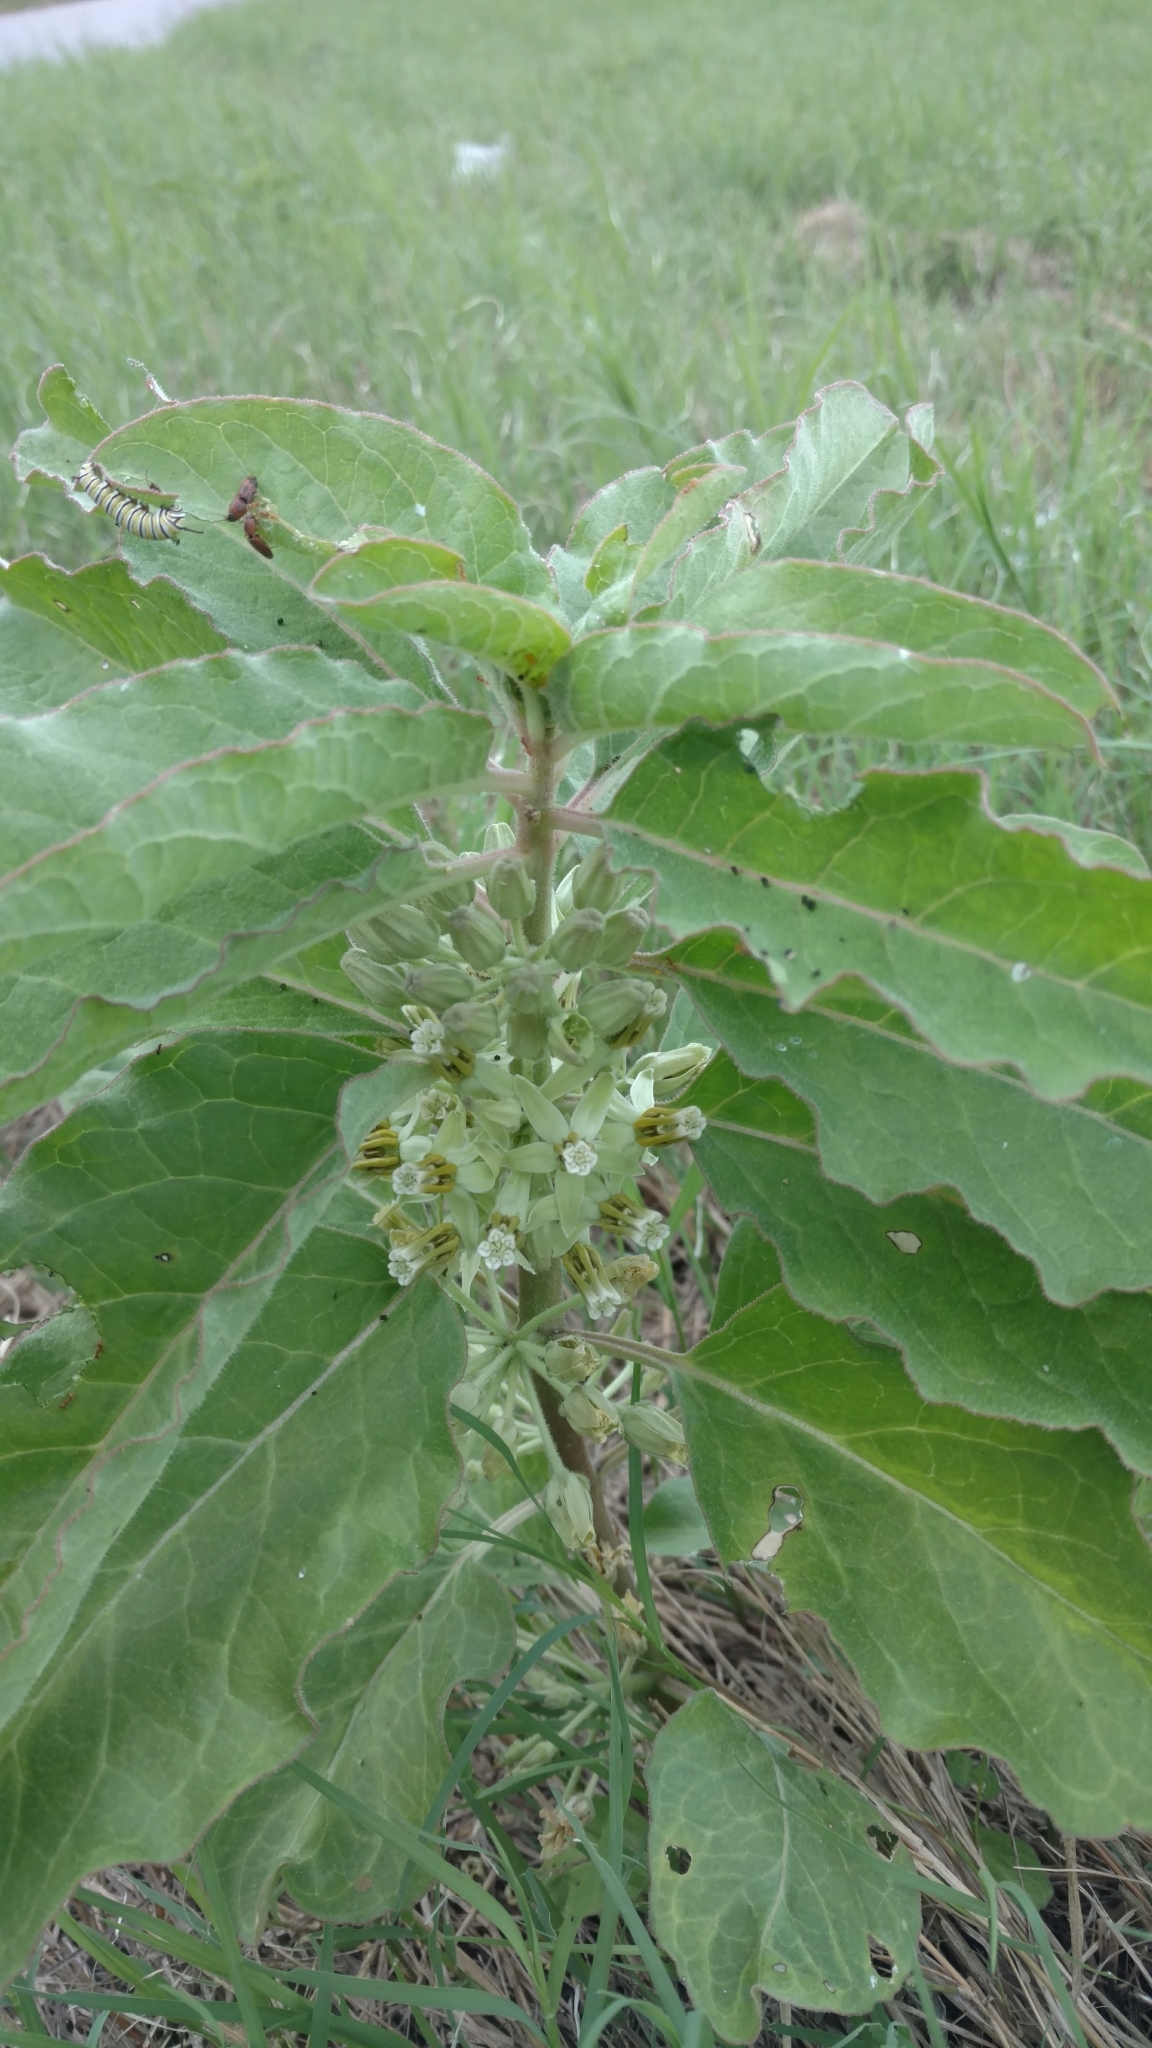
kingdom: Plantae
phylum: Tracheophyta
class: Magnoliopsida
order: Gentianales
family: Apocynaceae
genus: Asclepias
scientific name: Asclepias oenotheroides
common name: Zizotes milkweed
